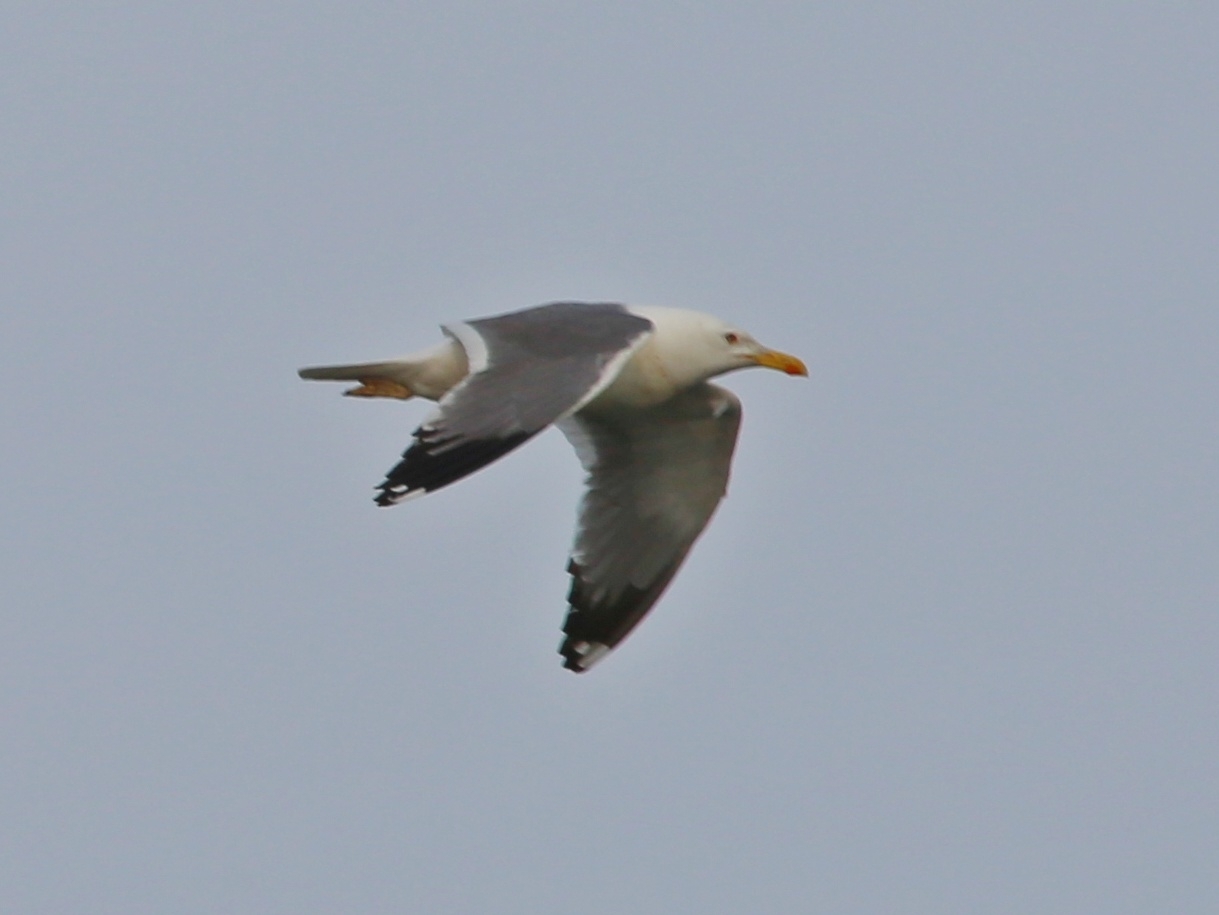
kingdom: Animalia
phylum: Chordata
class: Aves
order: Charadriiformes
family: Laridae
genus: Larus
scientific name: Larus fuscus
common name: Lesser black-backed gull
